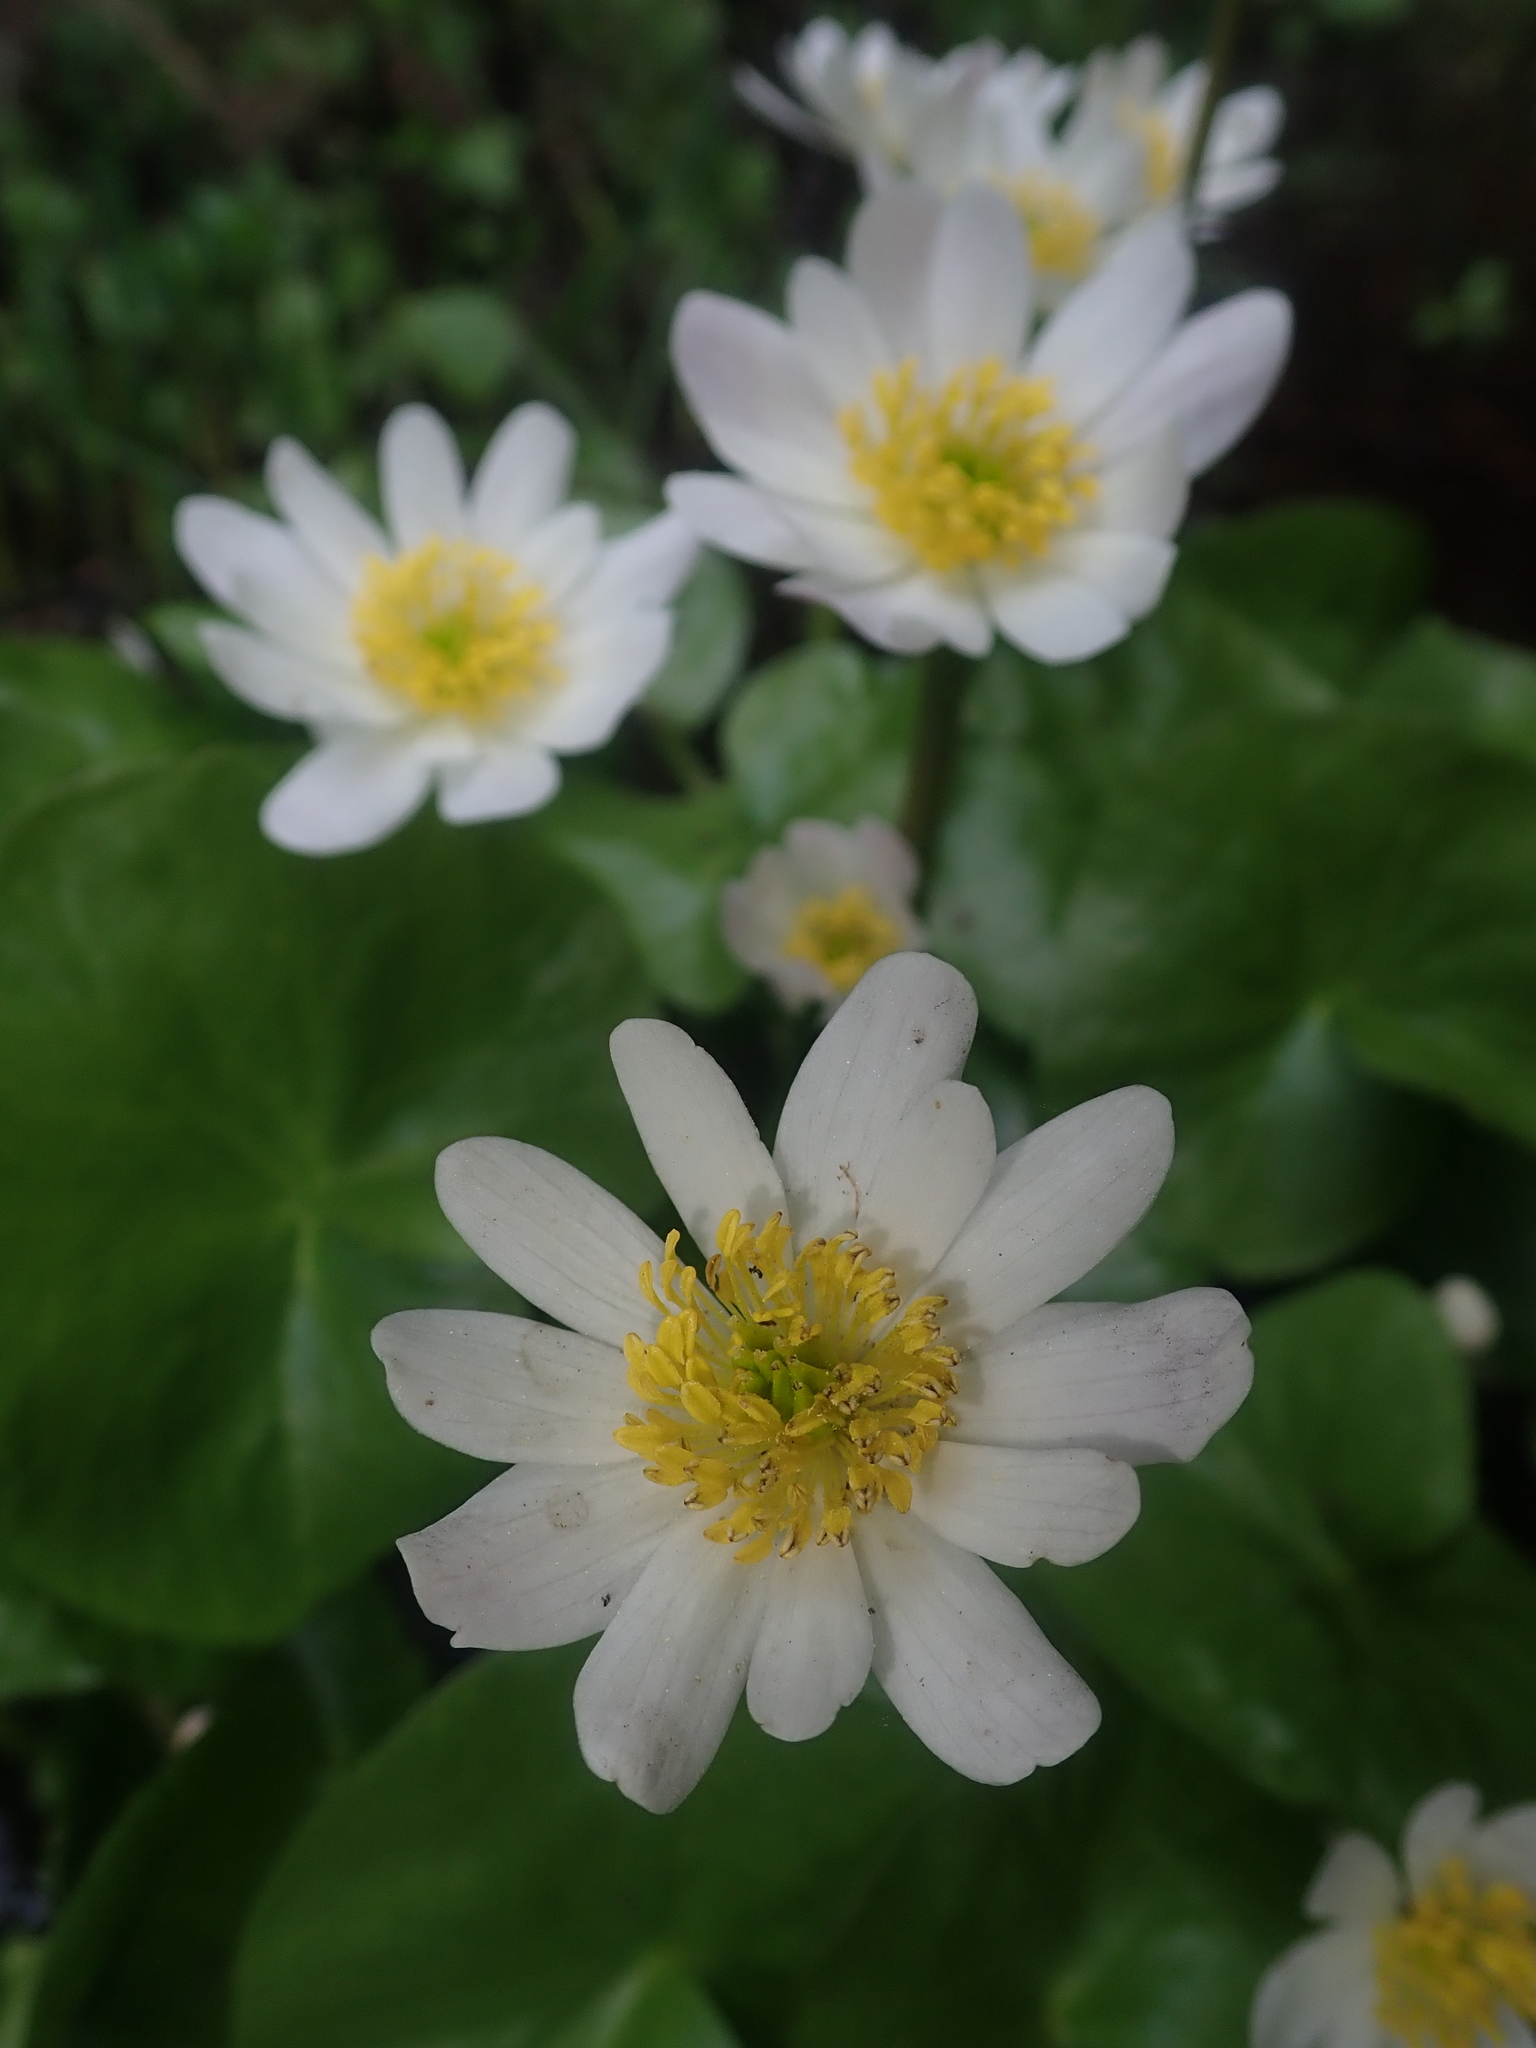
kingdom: Plantae
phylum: Tracheophyta
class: Magnoliopsida
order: Ranunculales
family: Ranunculaceae
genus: Caltha
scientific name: Caltha leptosepala
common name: Elkslip
